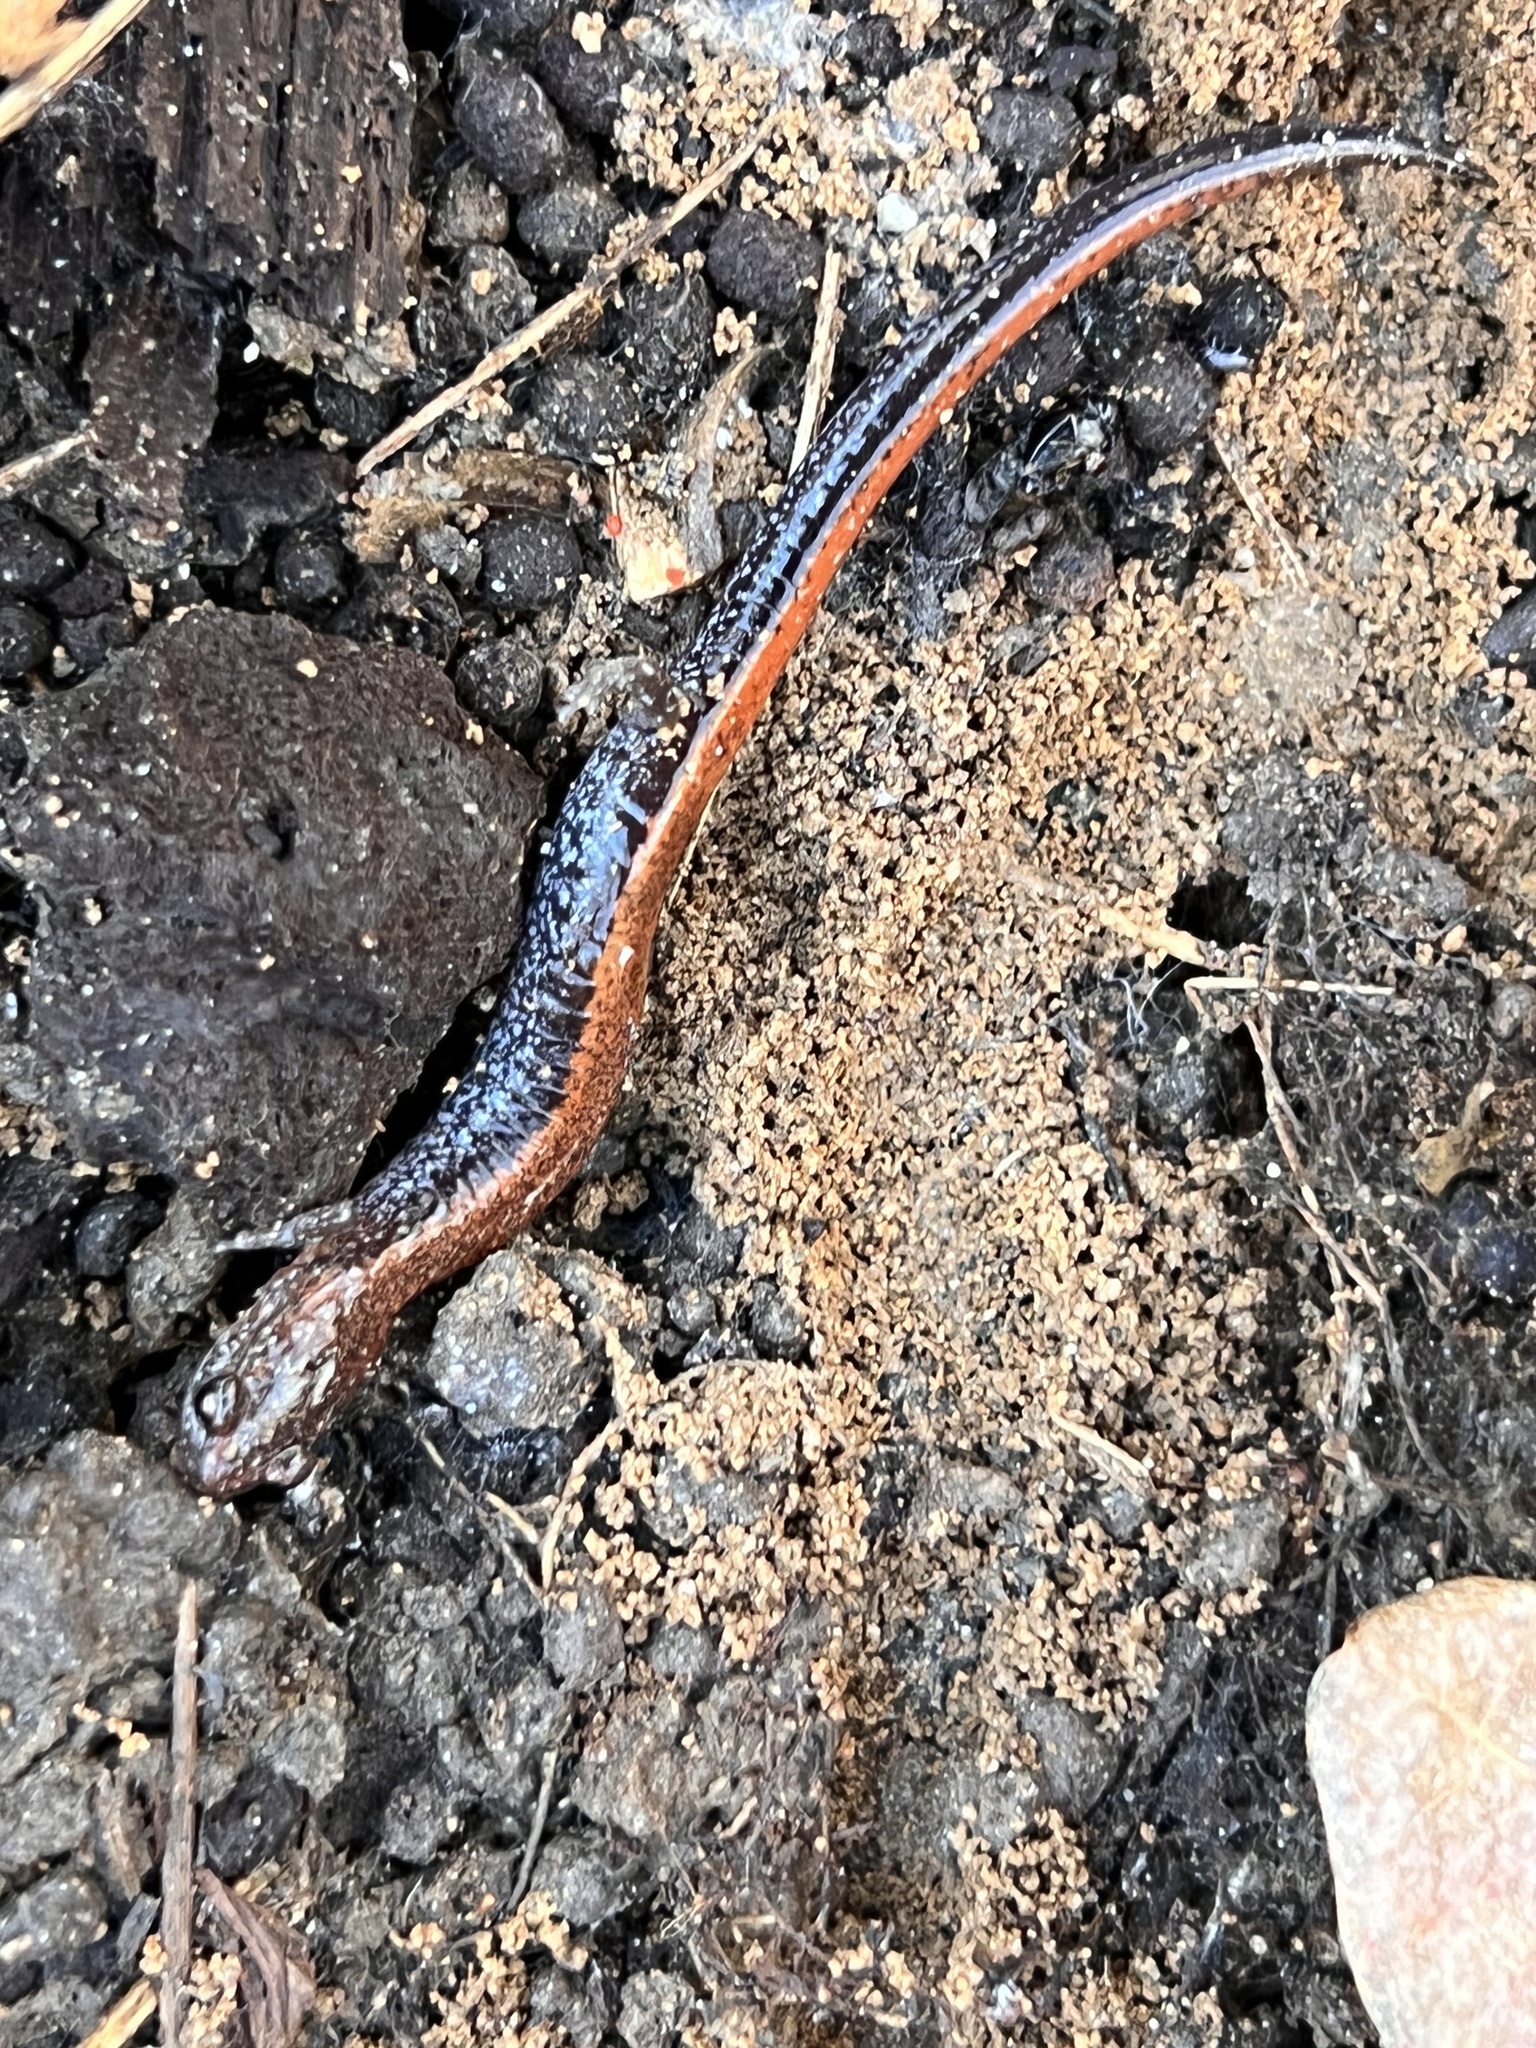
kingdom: Animalia
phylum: Chordata
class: Amphibia
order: Caudata
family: Plethodontidae
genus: Plethodon
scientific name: Plethodon cinereus
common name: Redback salamander
